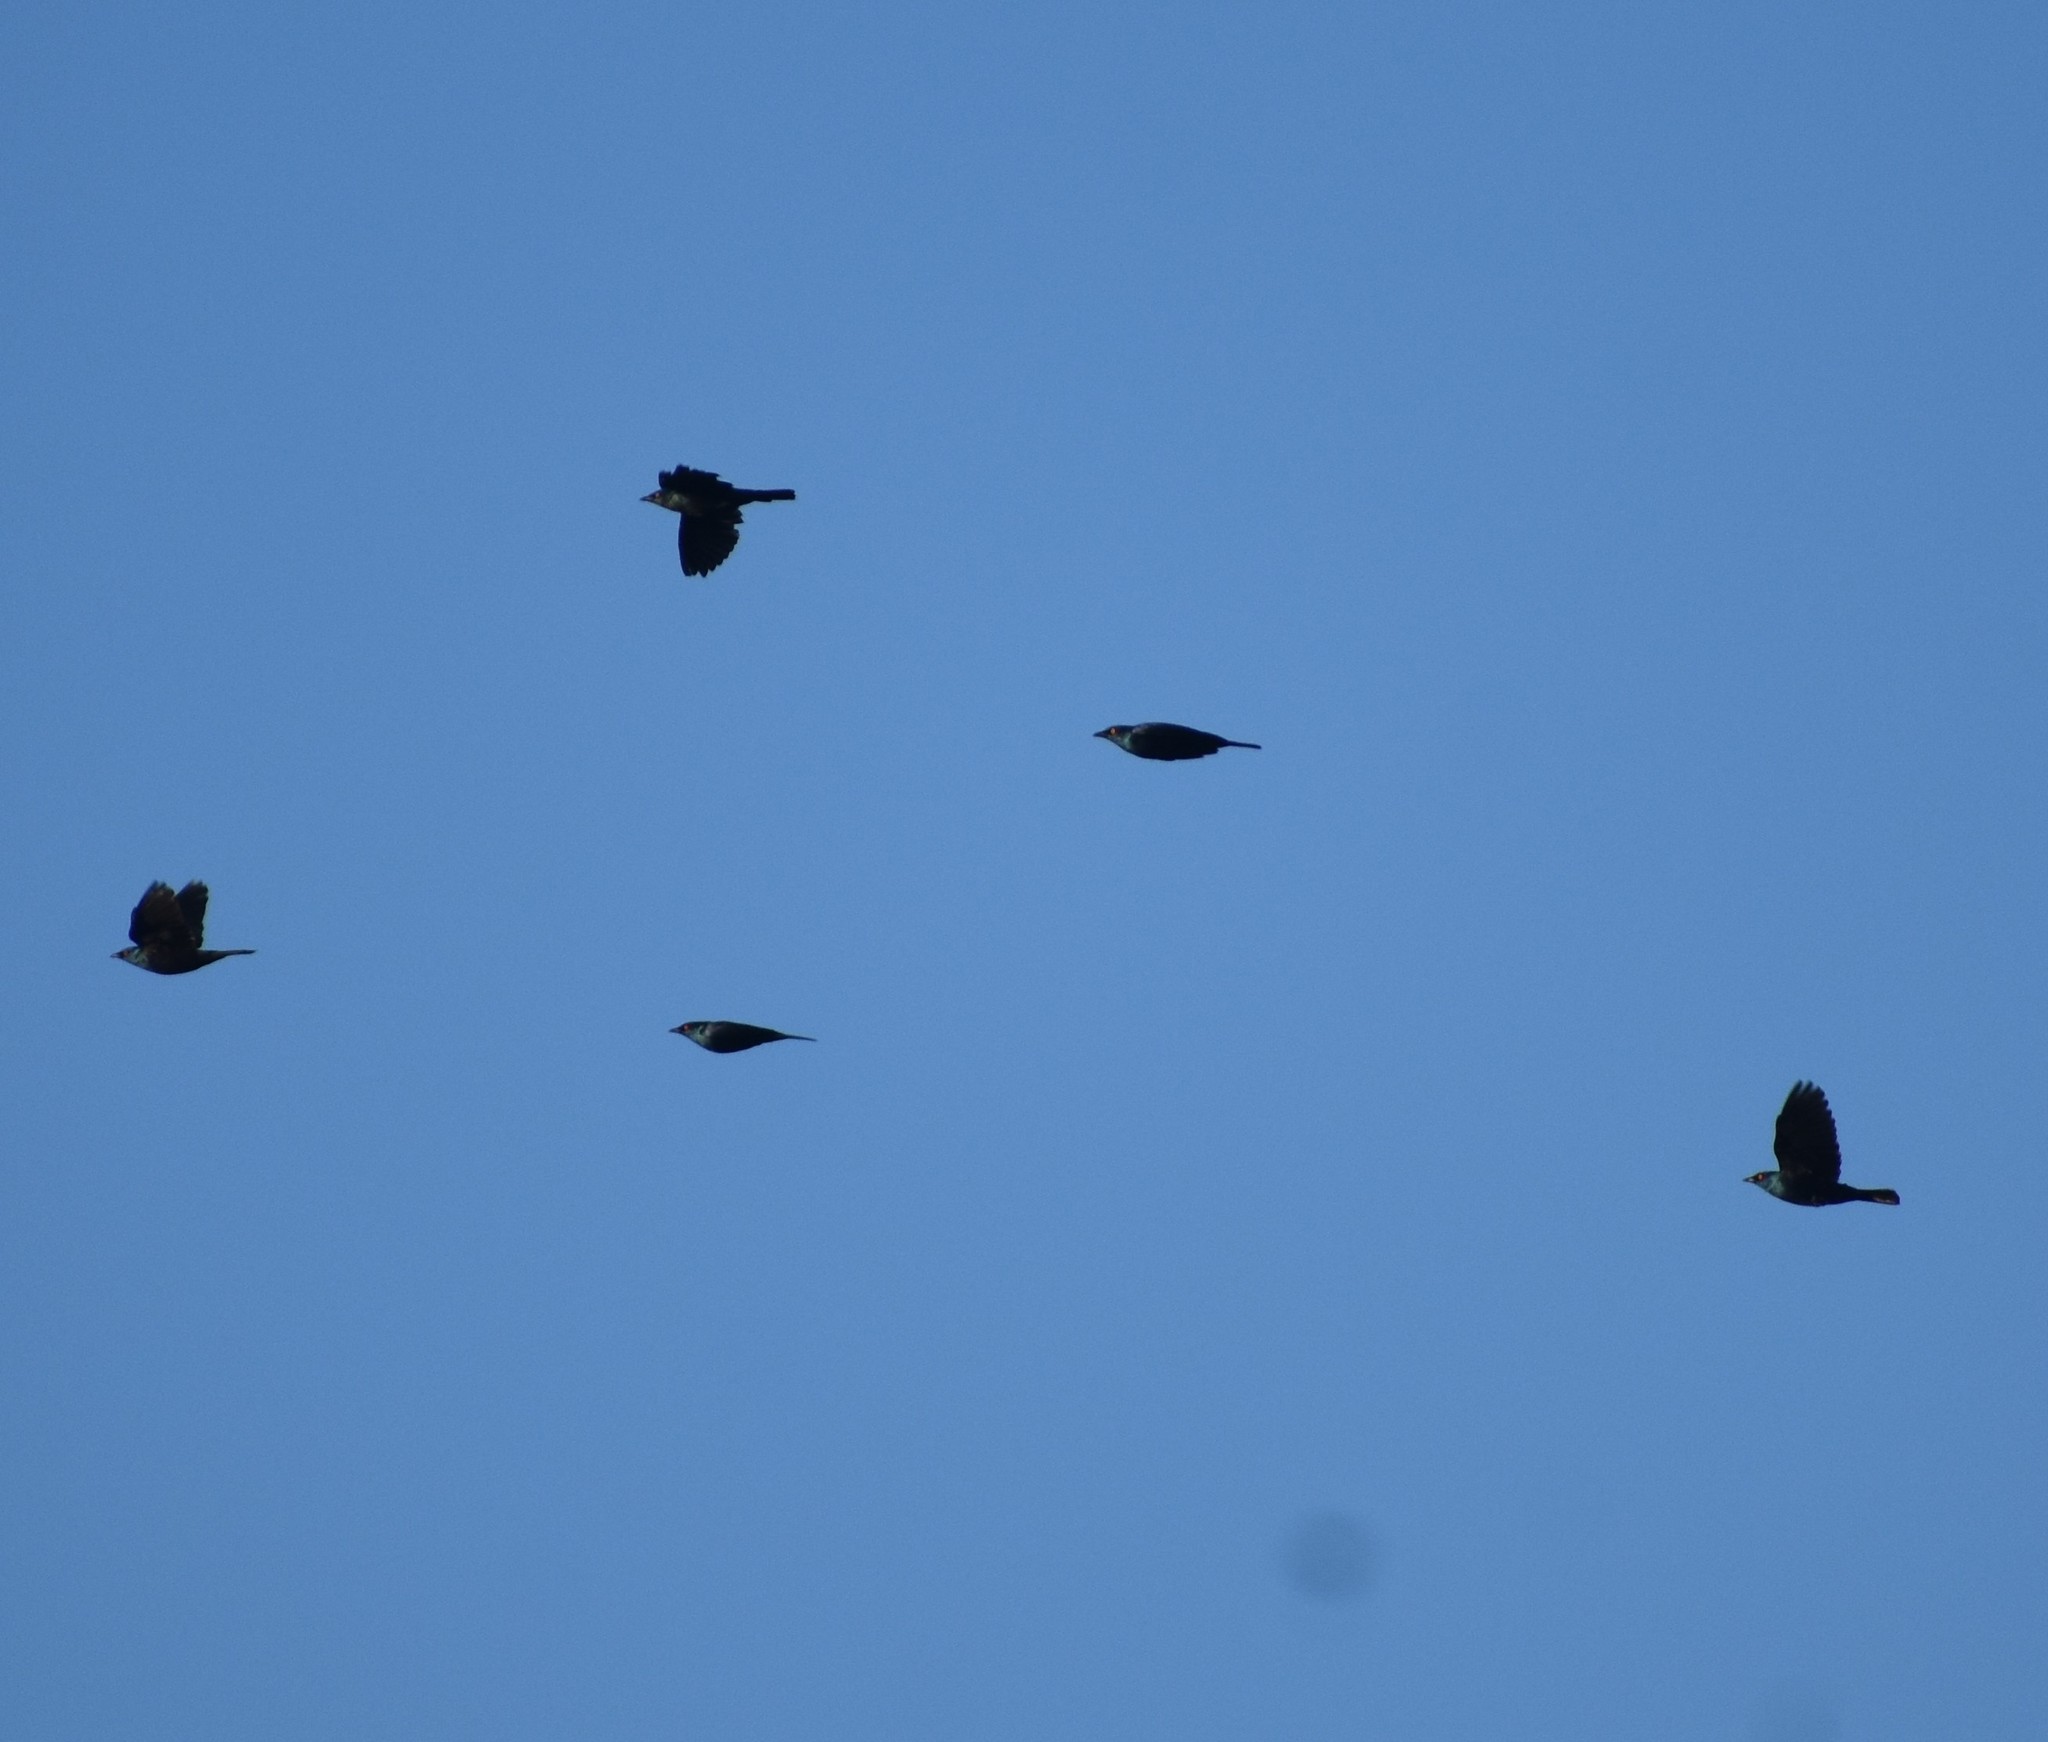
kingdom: Animalia
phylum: Chordata
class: Aves
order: Passeriformes
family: Sturnidae
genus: Notopholia
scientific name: Notopholia corrusca
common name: Black-bellied starling
